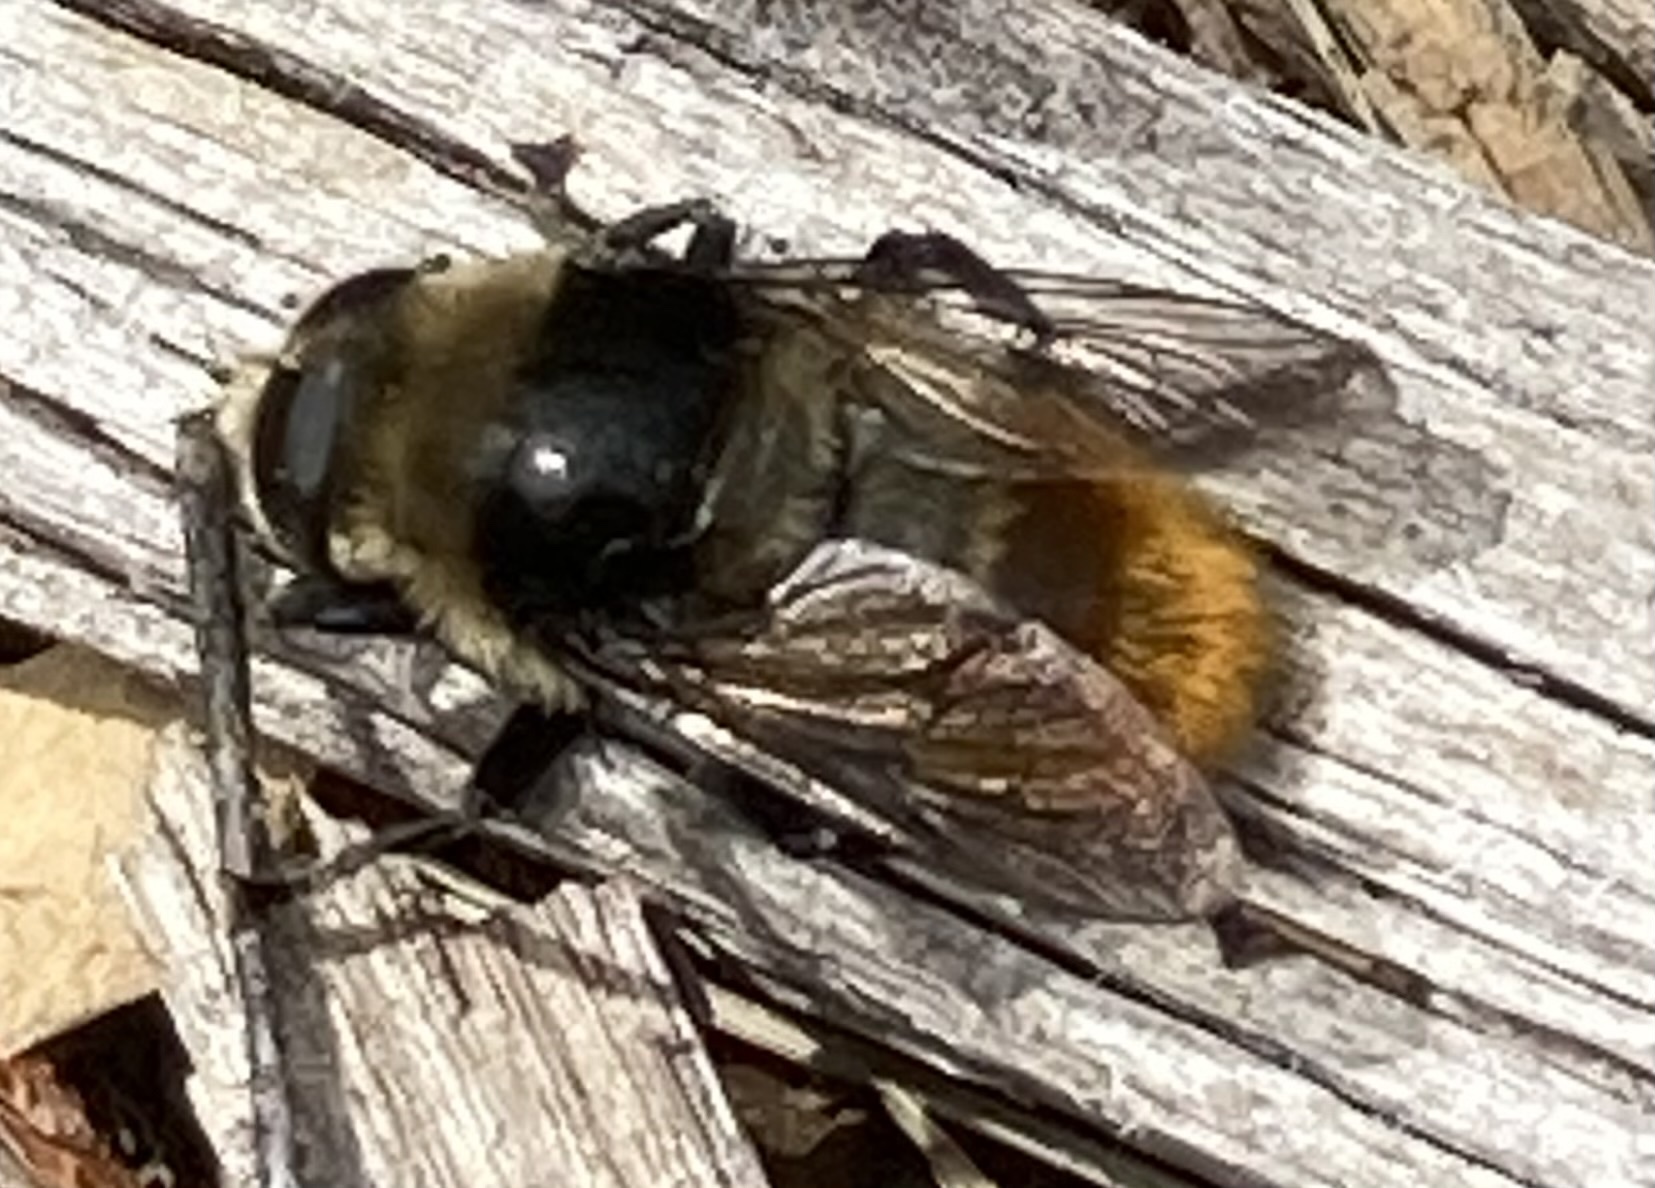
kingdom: Animalia
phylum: Arthropoda
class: Insecta
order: Diptera
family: Syrphidae
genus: Merodon
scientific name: Merodon equestris
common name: Greater bulb-fly
